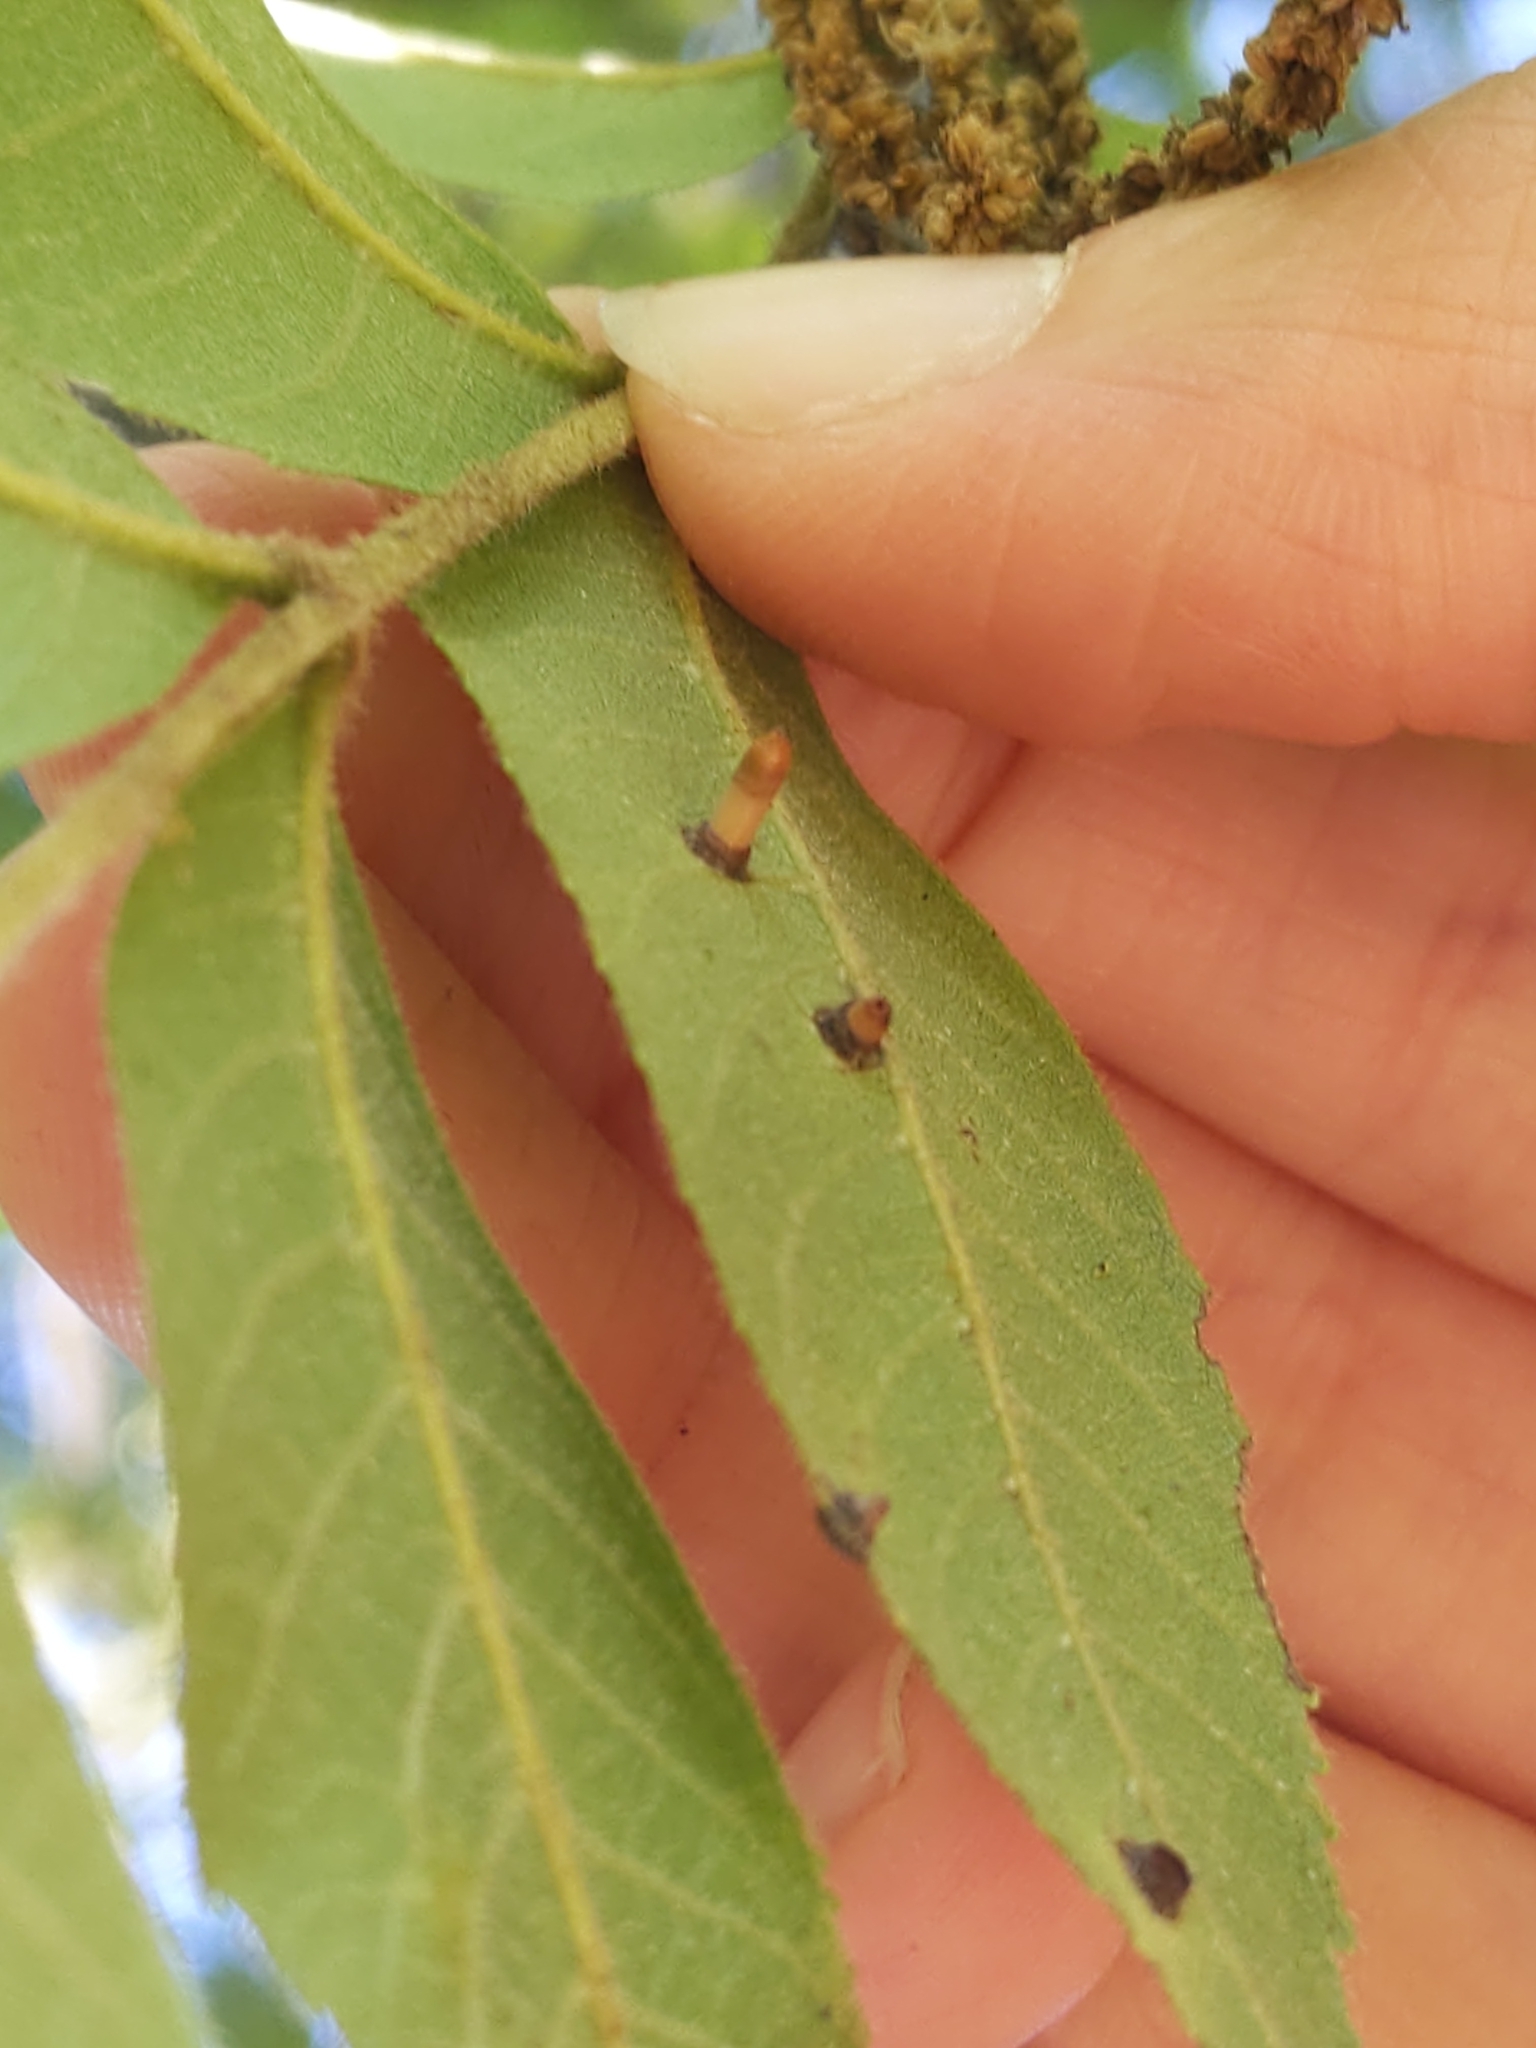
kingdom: Animalia
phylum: Arthropoda
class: Insecta
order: Diptera
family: Cecidomyiidae
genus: Caryomyia
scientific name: Caryomyia tubicola
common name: Hickory bullet gall midge
